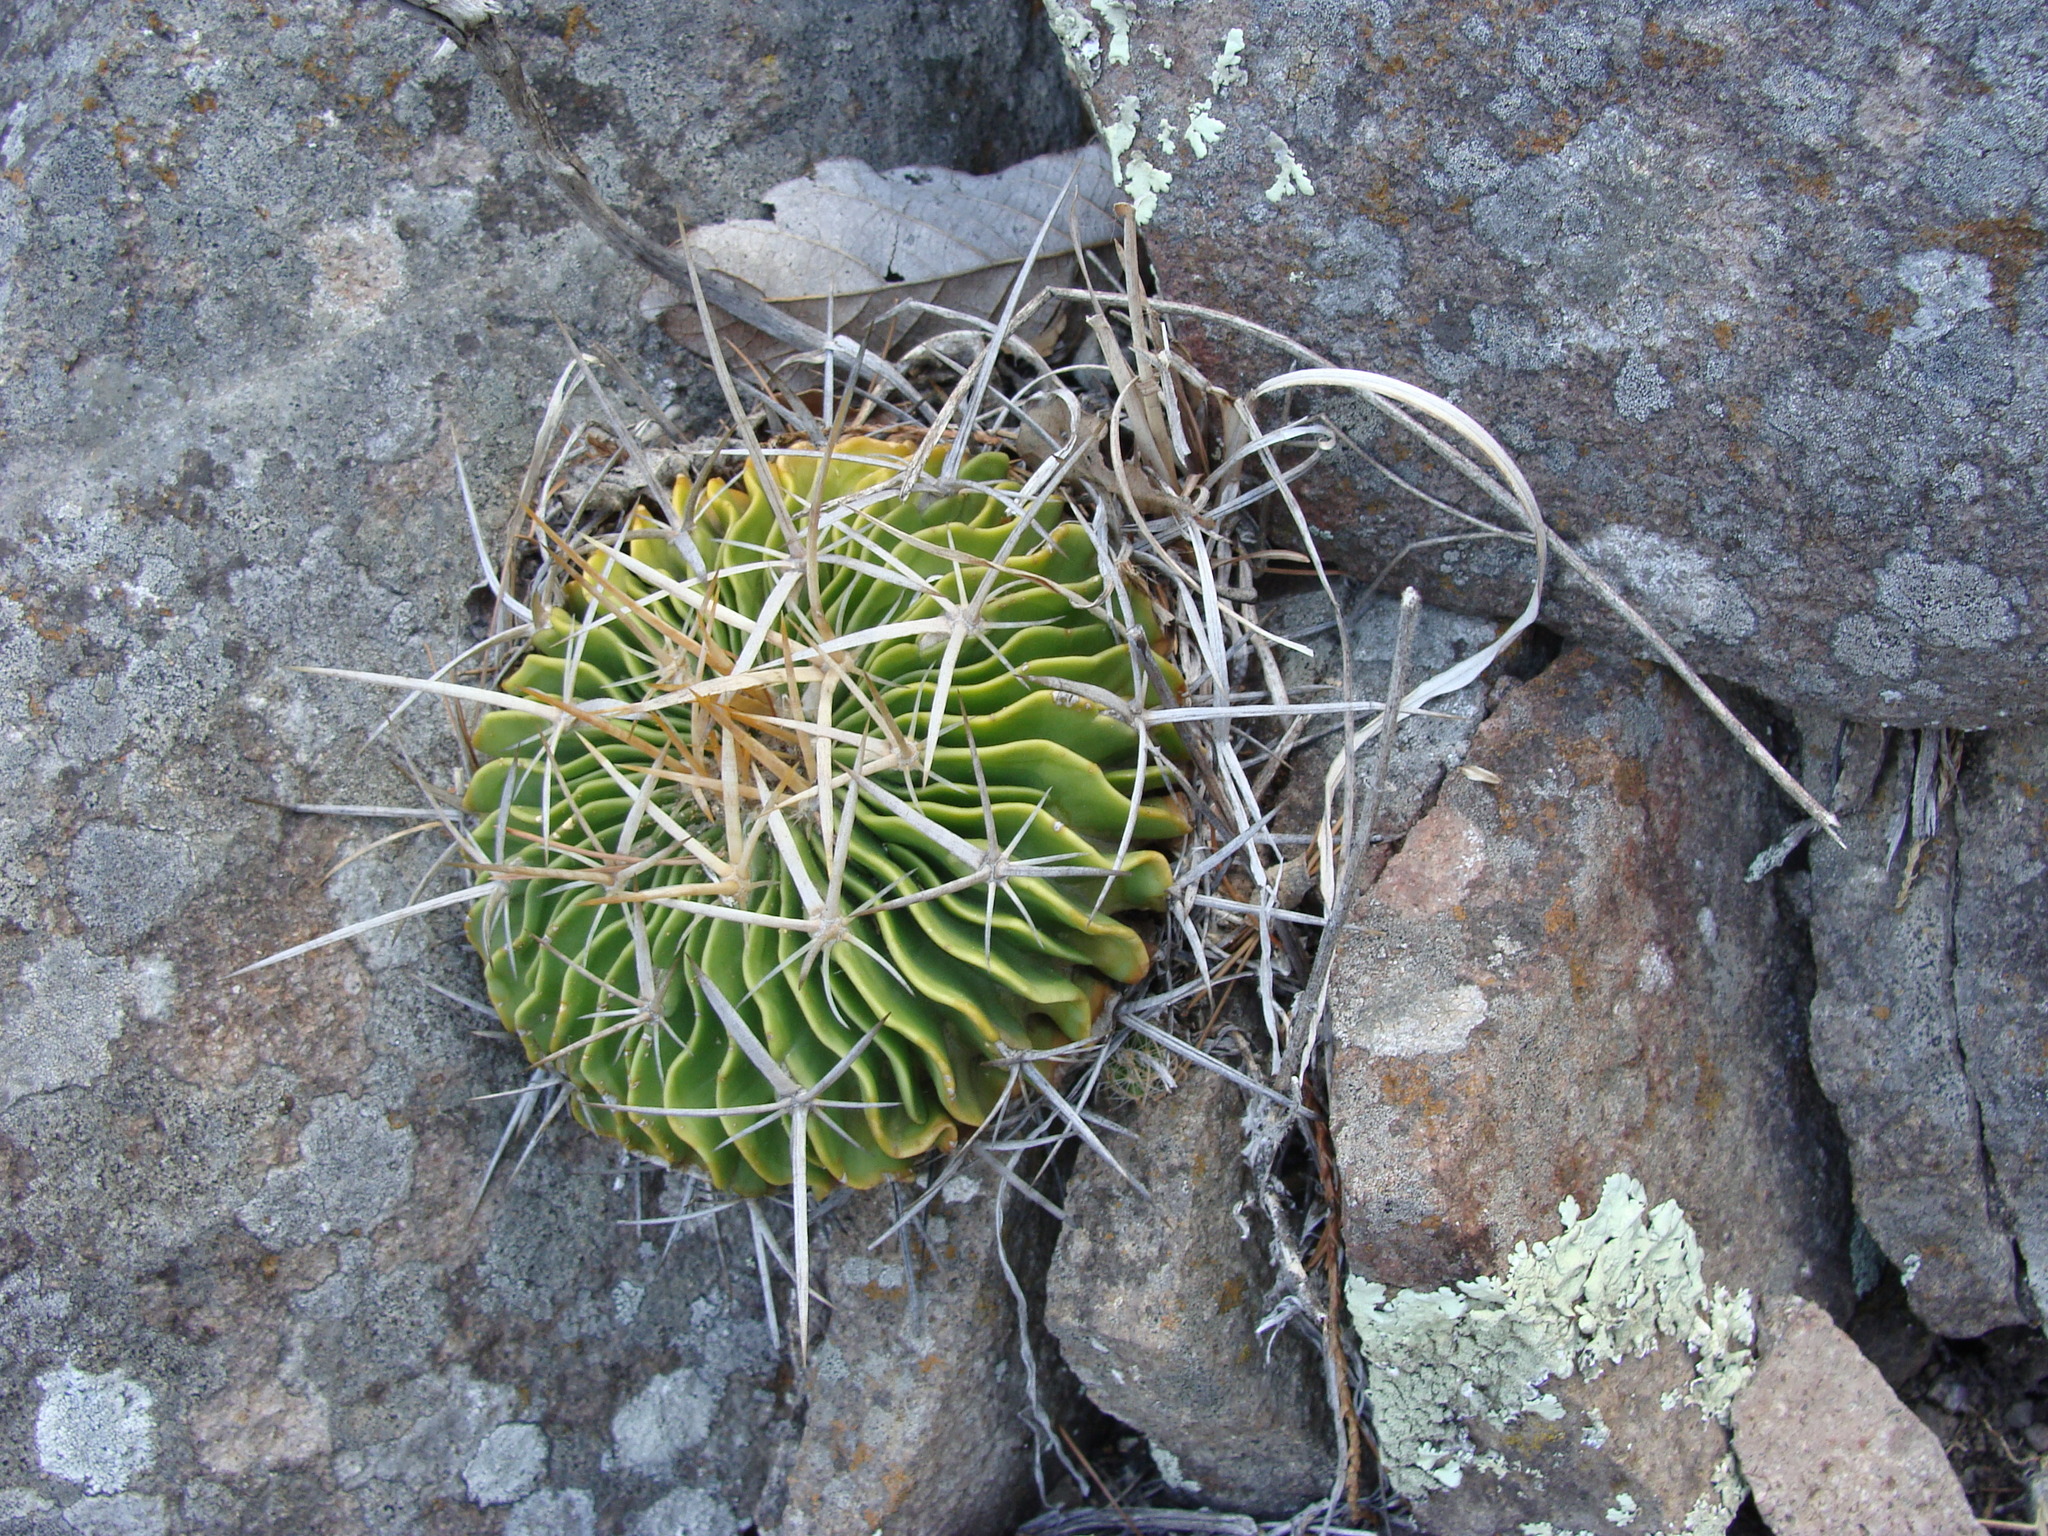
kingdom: Plantae
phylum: Tracheophyta
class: Magnoliopsida
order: Caryophyllales
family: Cactaceae
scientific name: Cactaceae
